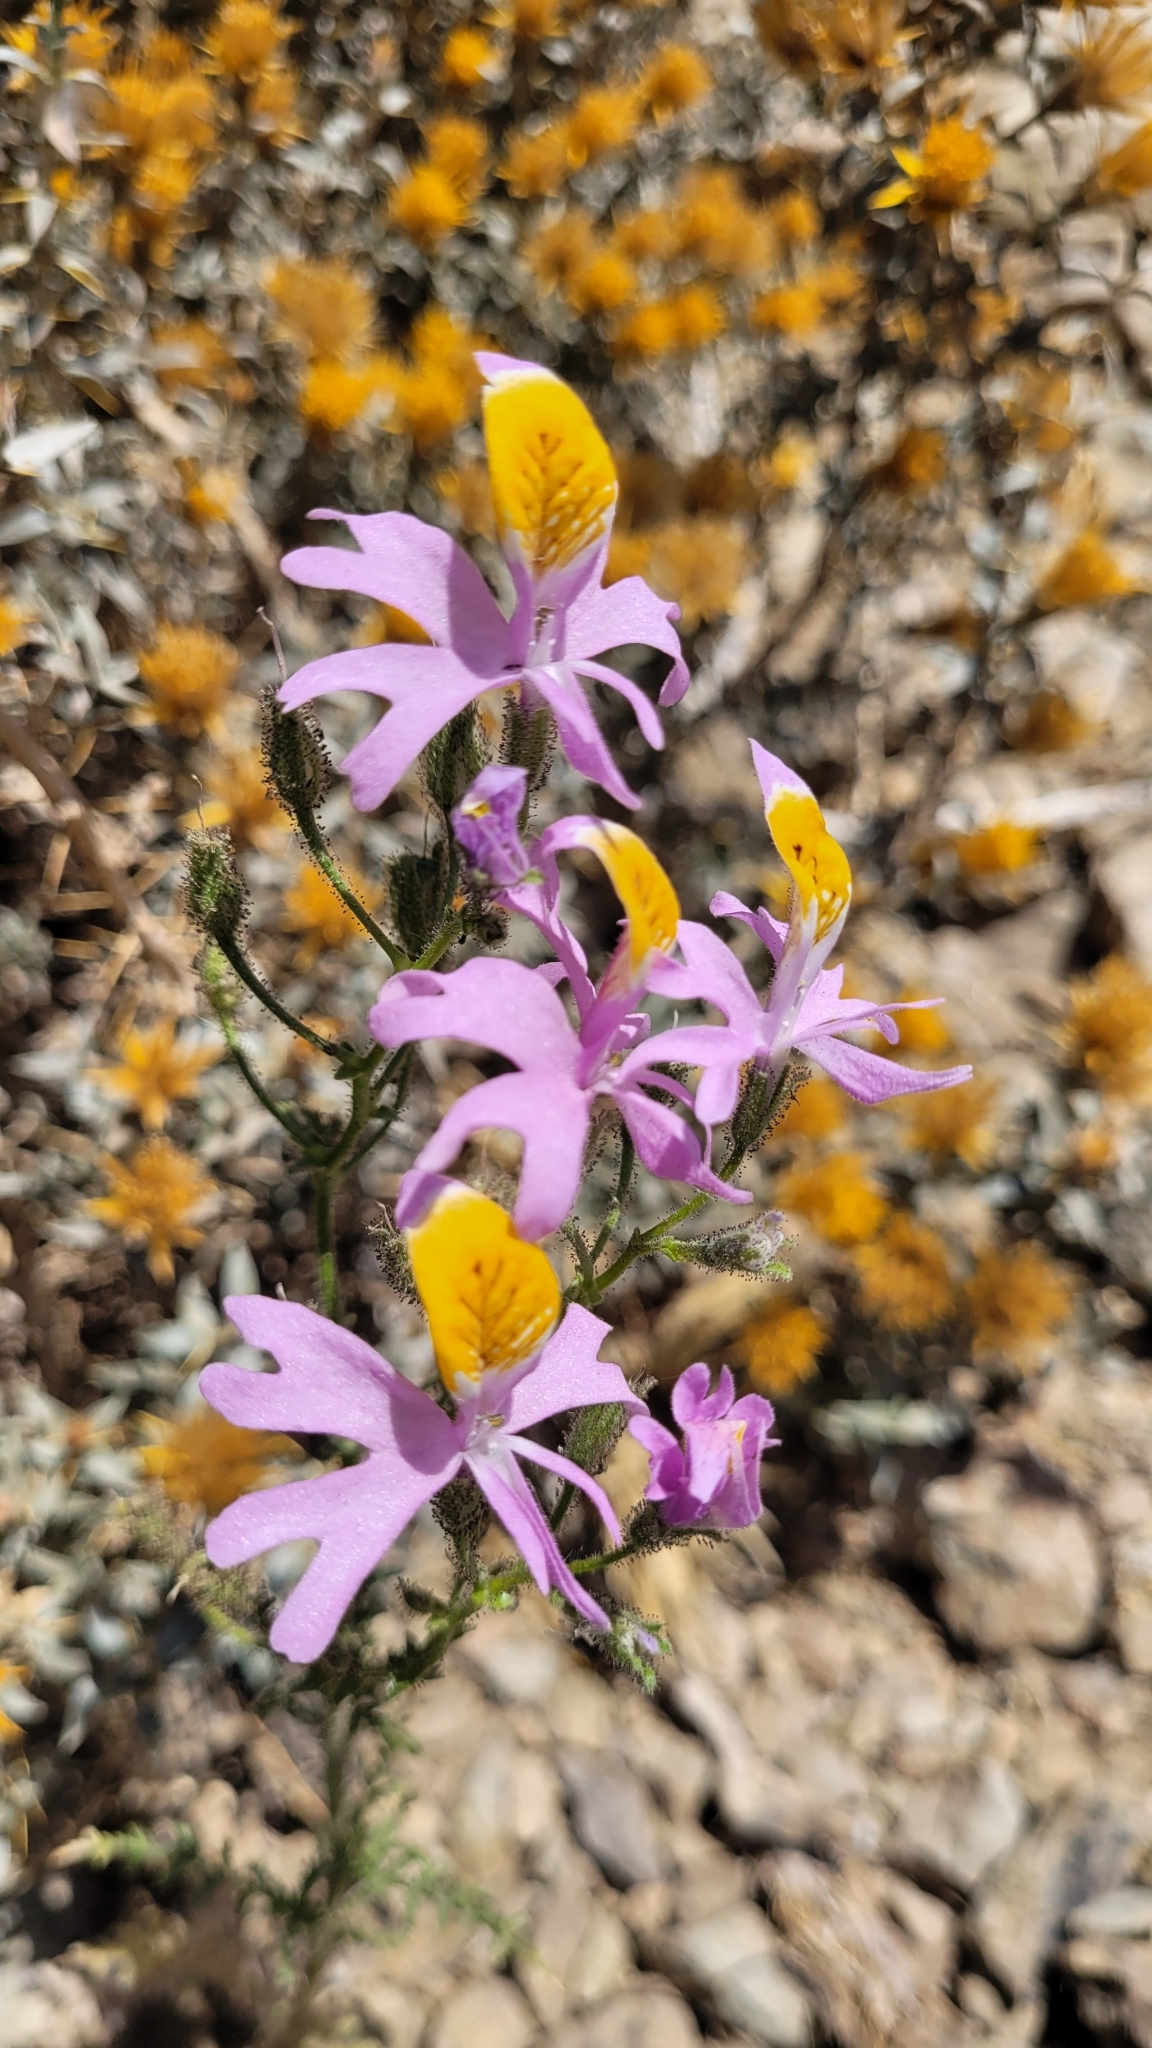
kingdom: Plantae
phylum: Tracheophyta
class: Magnoliopsida
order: Solanales
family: Solanaceae
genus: Schizanthus
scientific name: Schizanthus hookeri
